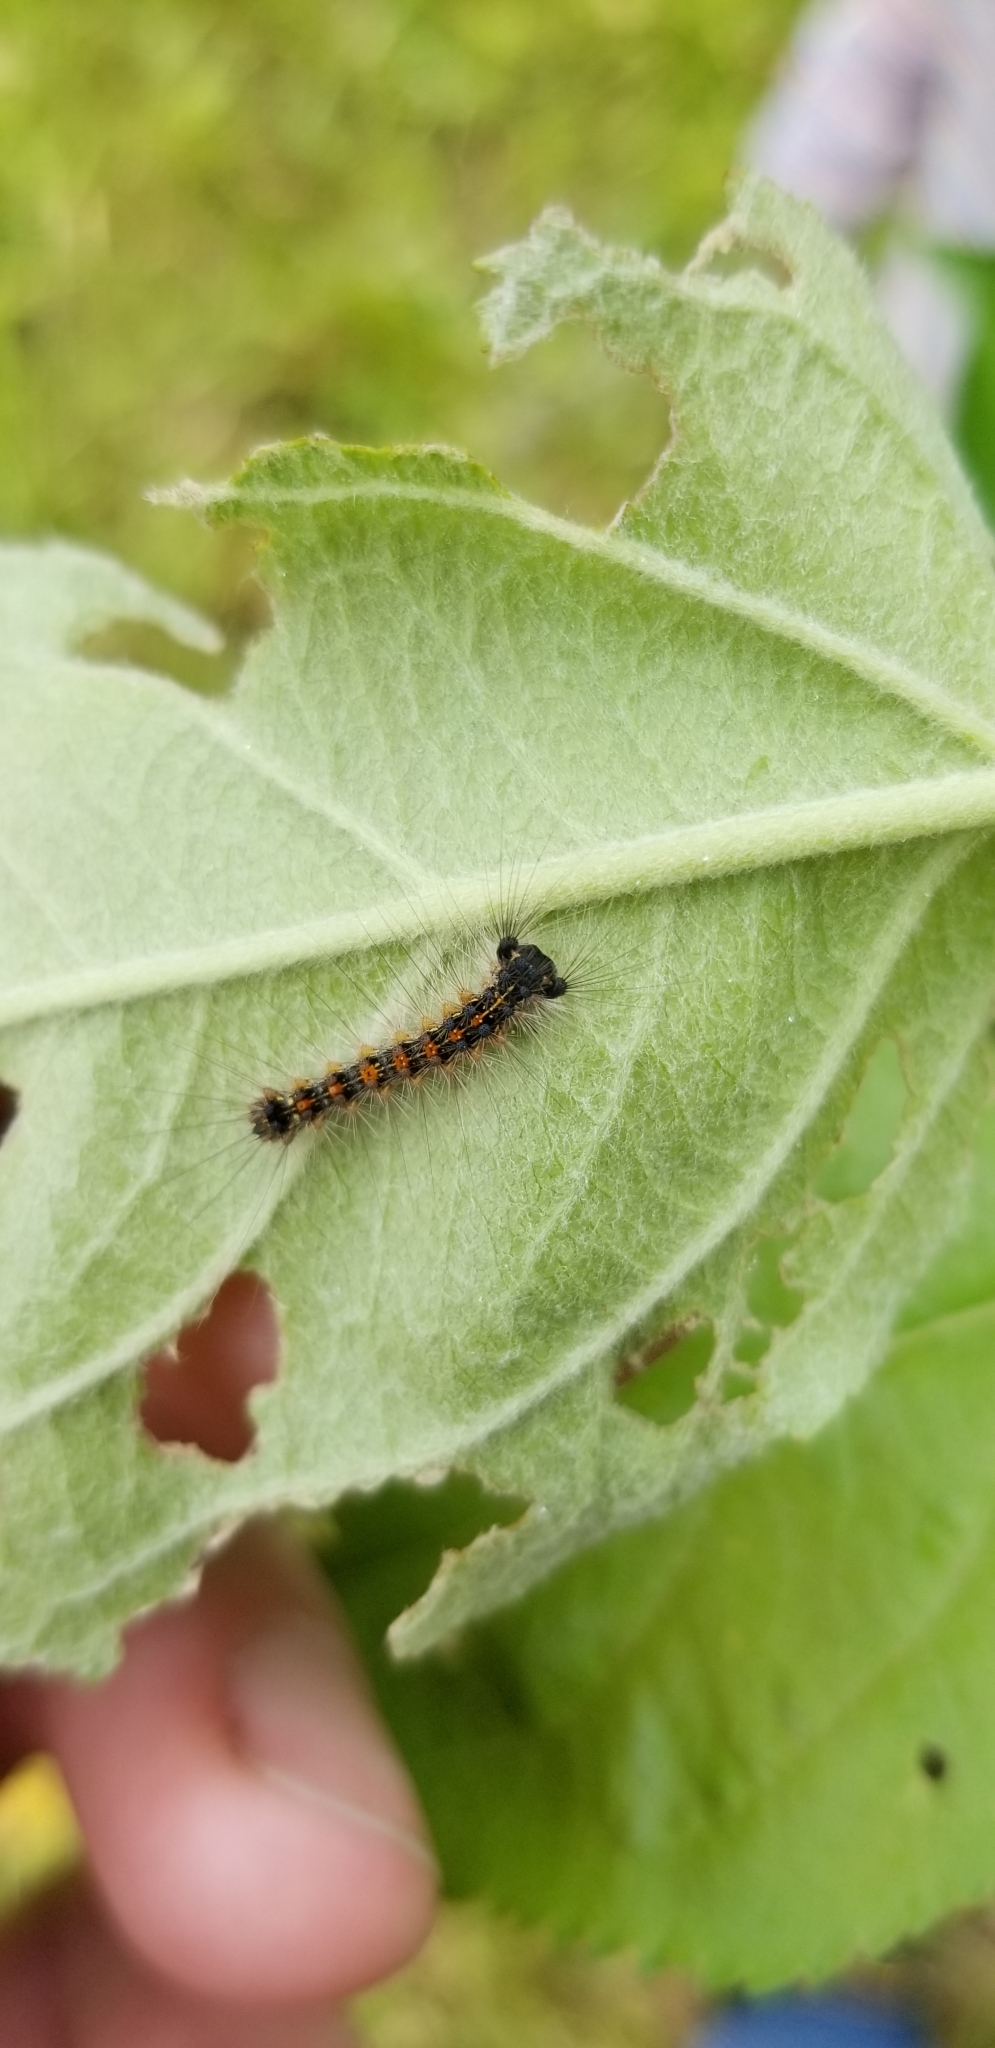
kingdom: Animalia
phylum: Arthropoda
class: Insecta
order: Lepidoptera
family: Erebidae
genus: Lymantria
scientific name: Lymantria dispar
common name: Gypsy moth
